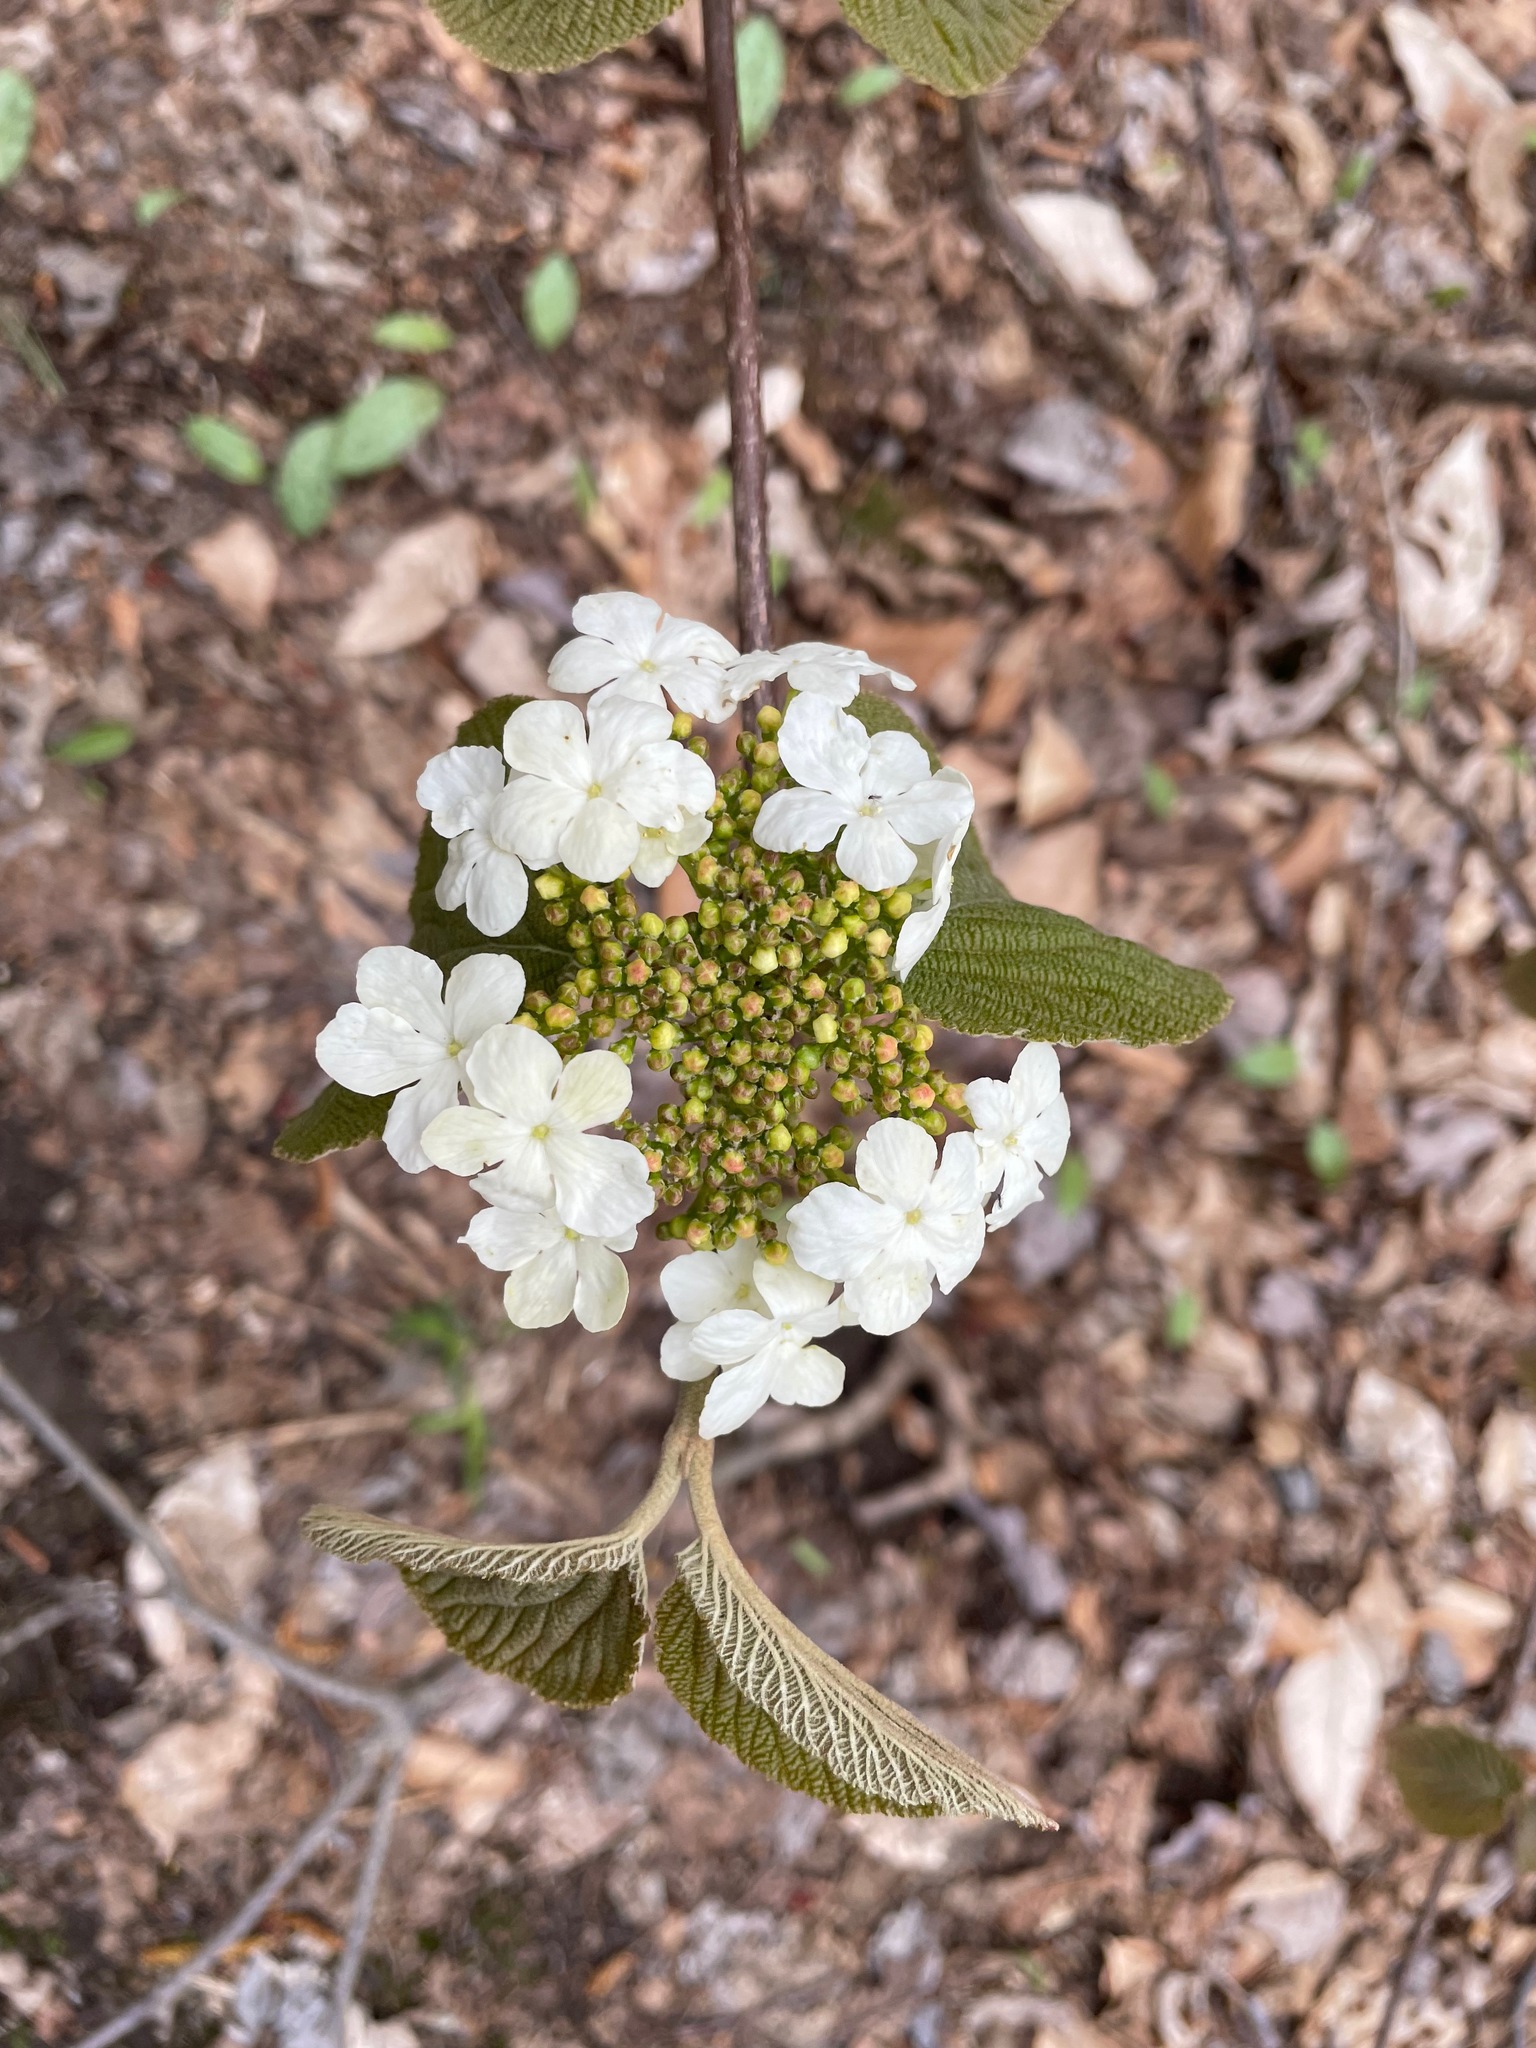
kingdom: Plantae
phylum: Tracheophyta
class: Magnoliopsida
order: Dipsacales
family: Viburnaceae
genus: Viburnum
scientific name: Viburnum lantanoides
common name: Hobblebush
